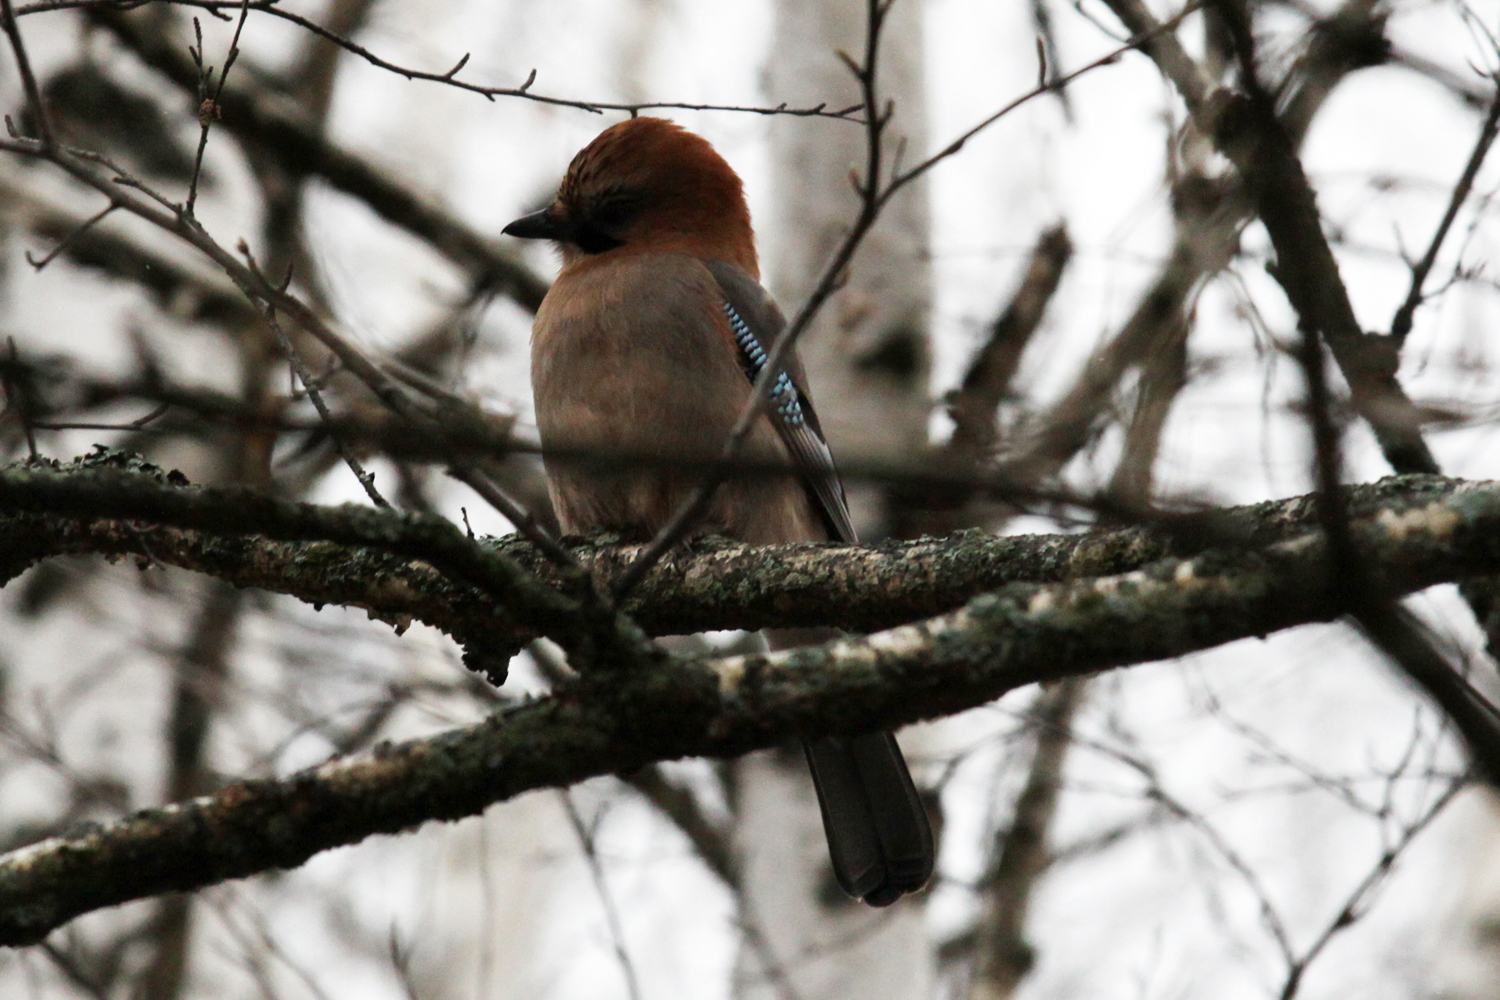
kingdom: Animalia
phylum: Chordata
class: Aves
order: Passeriformes
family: Corvidae
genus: Garrulus
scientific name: Garrulus glandarius
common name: Eurasian jay
